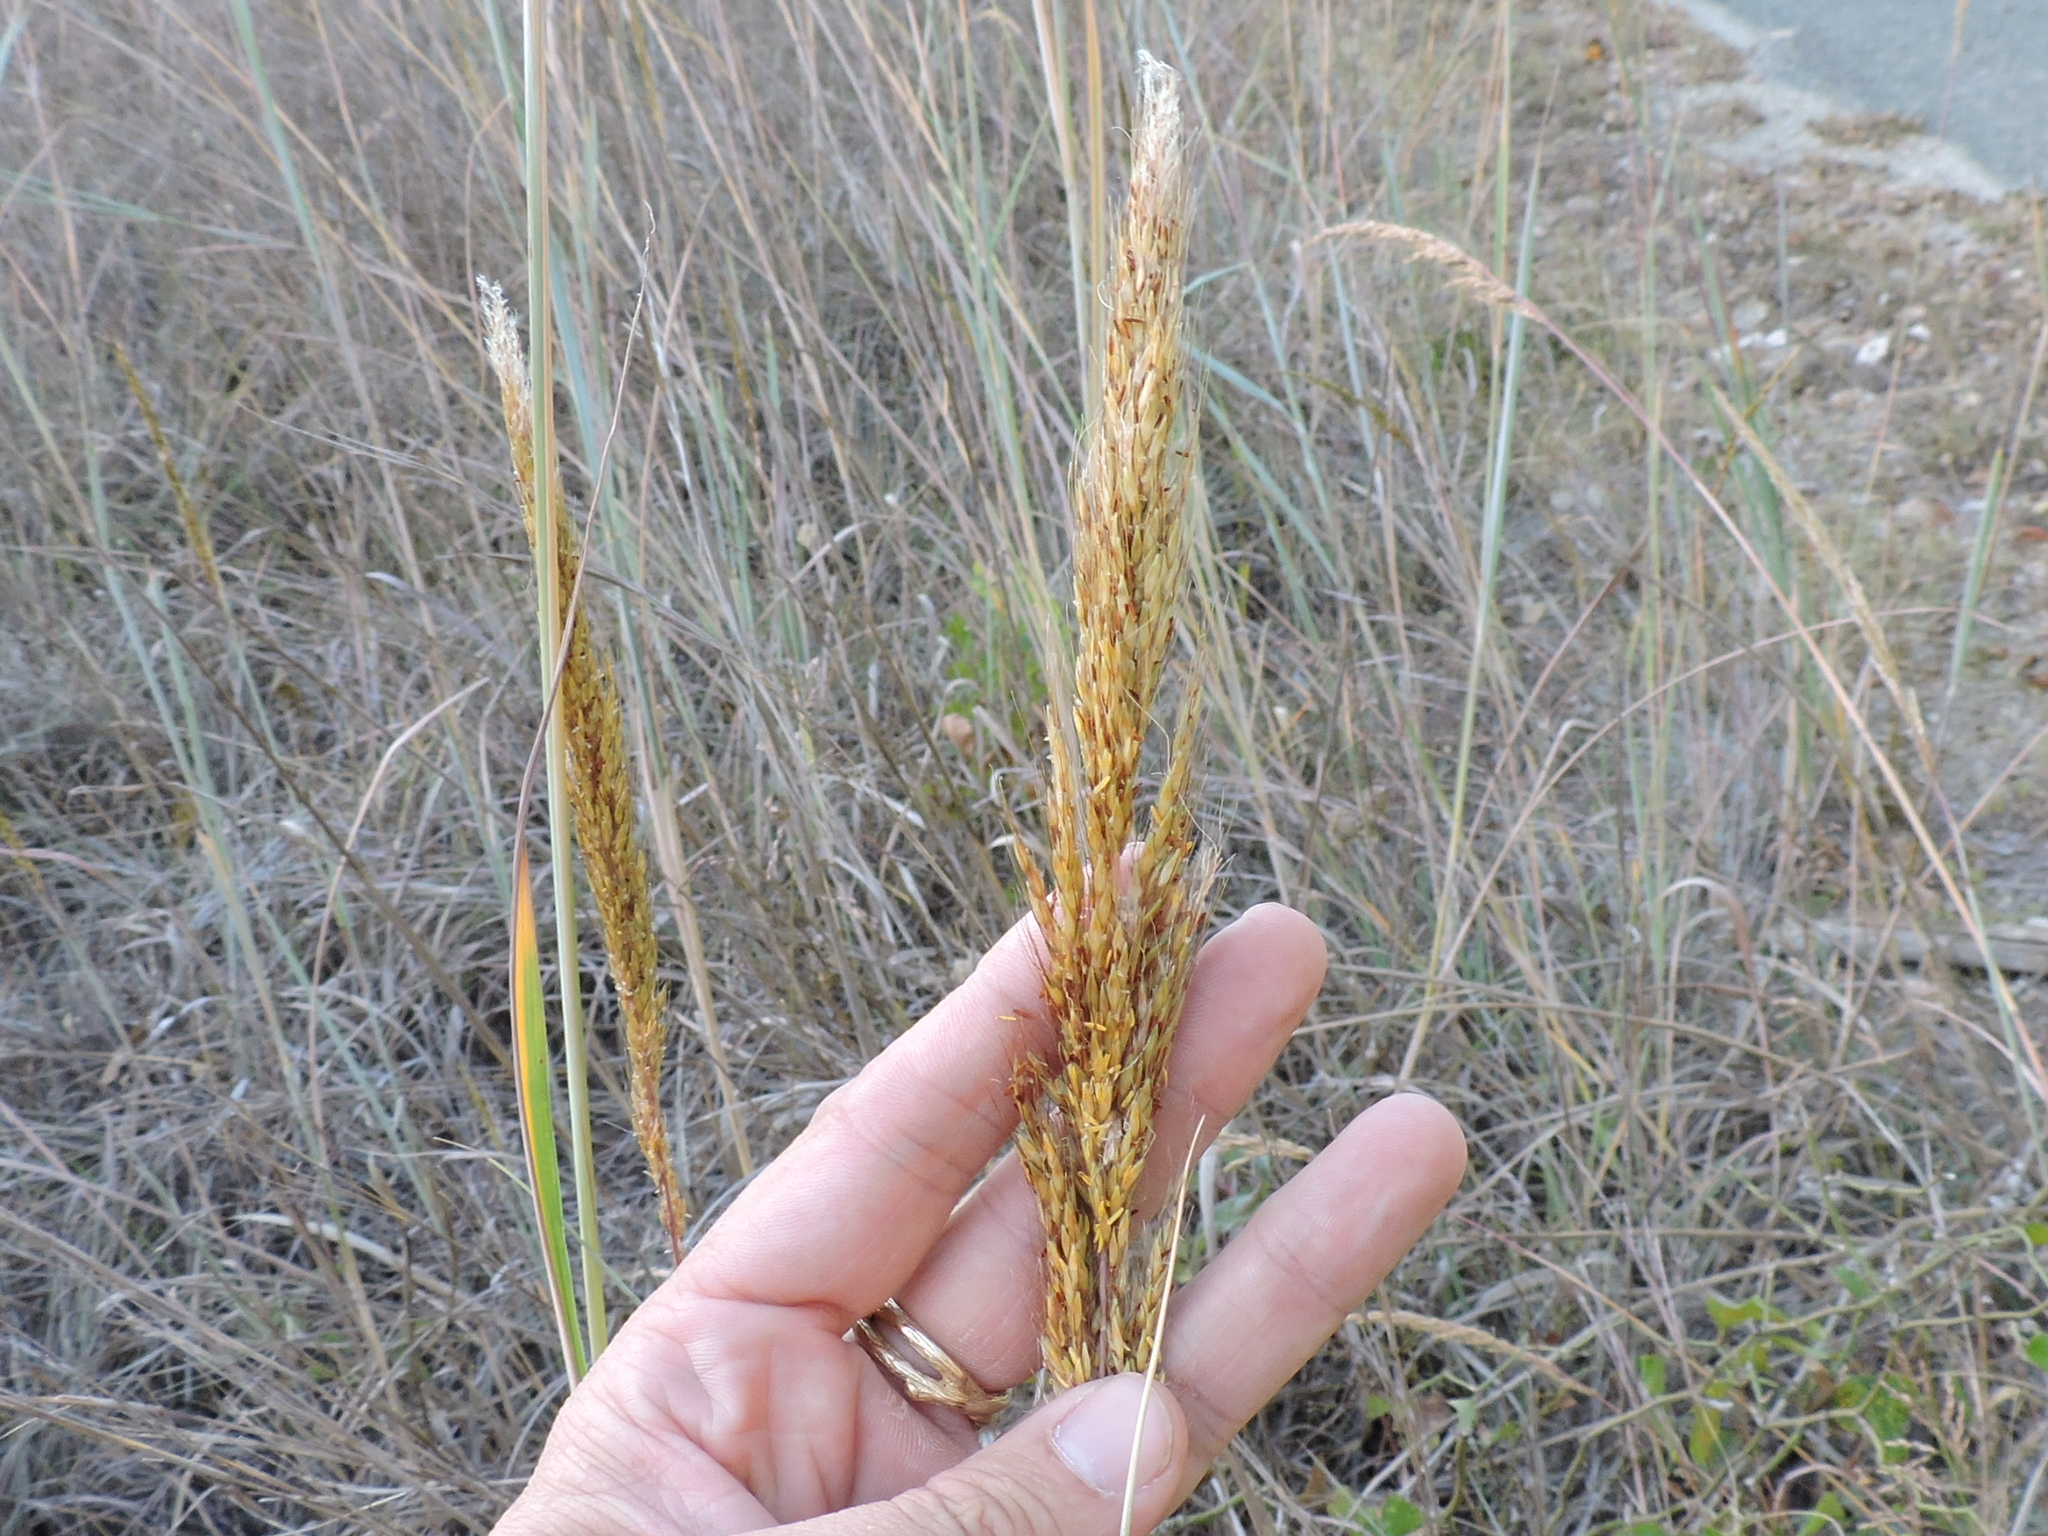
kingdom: Plantae
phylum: Tracheophyta
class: Liliopsida
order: Poales
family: Poaceae
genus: Sorghastrum
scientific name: Sorghastrum nutans
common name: Indian grass
